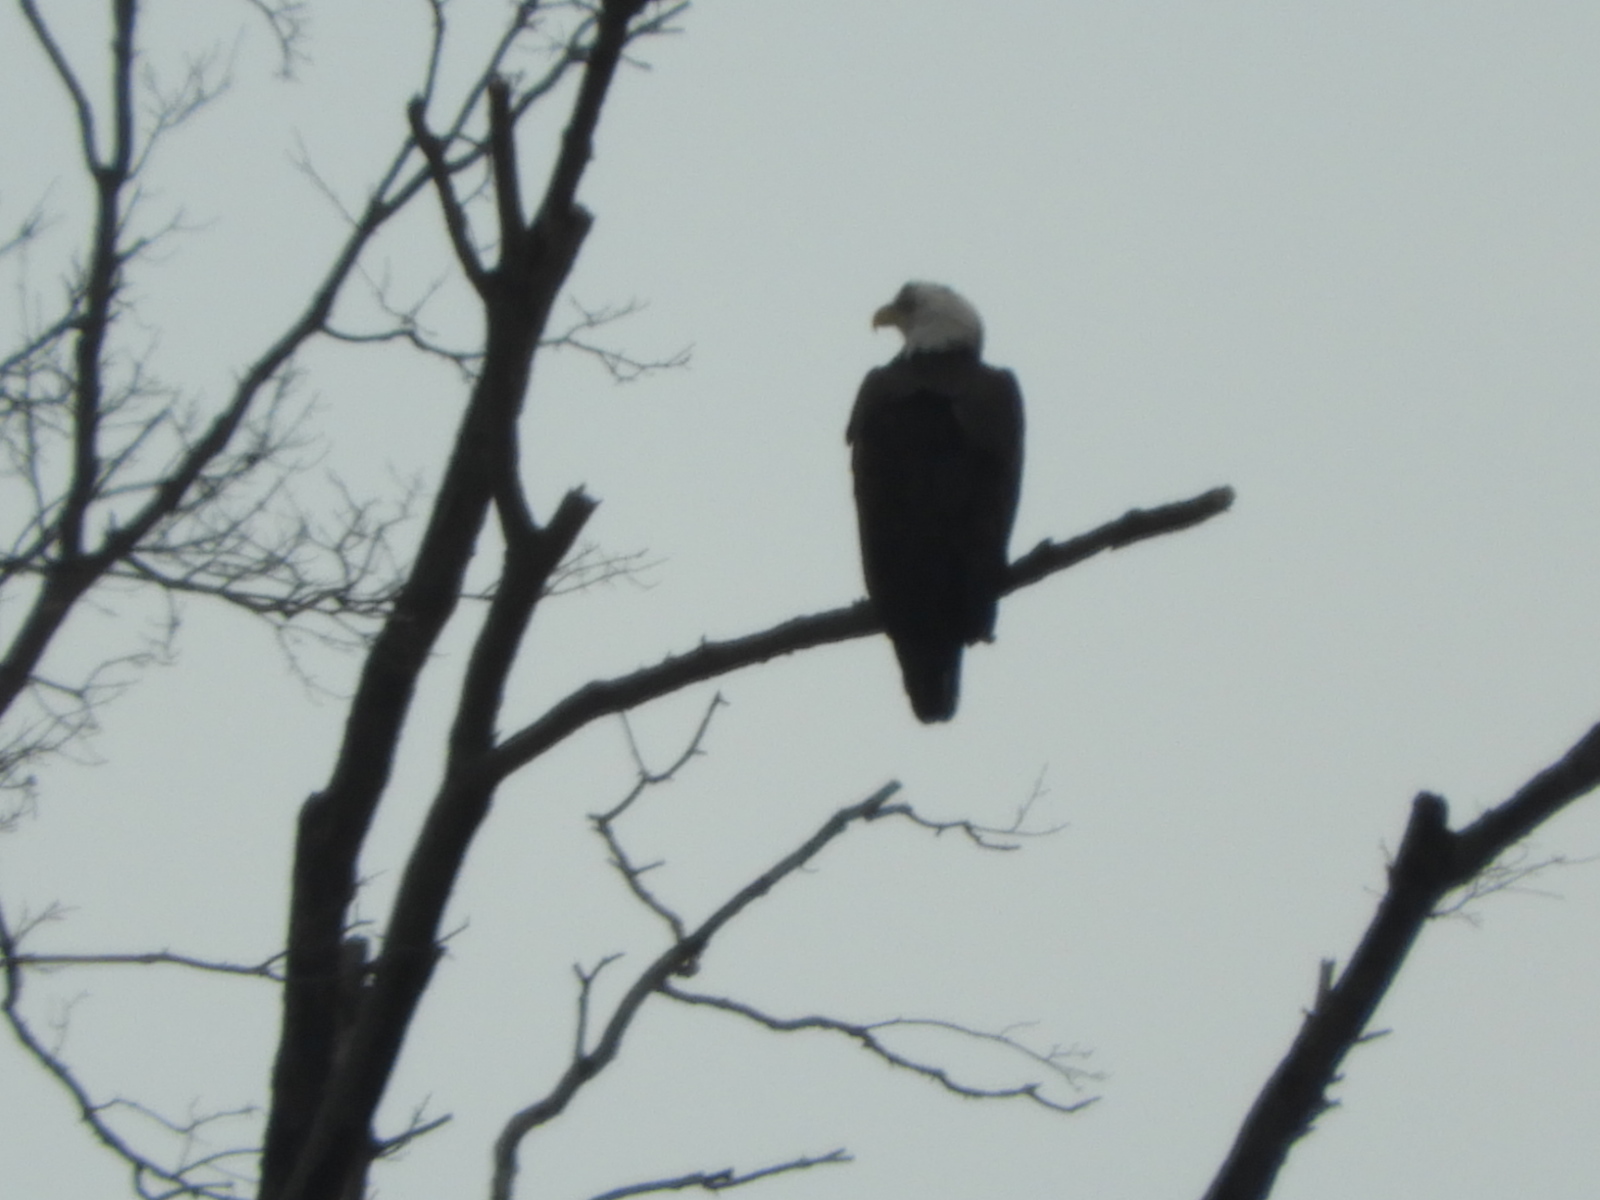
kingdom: Animalia
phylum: Chordata
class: Aves
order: Accipitriformes
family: Accipitridae
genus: Haliaeetus
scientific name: Haliaeetus leucocephalus
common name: Bald eagle
